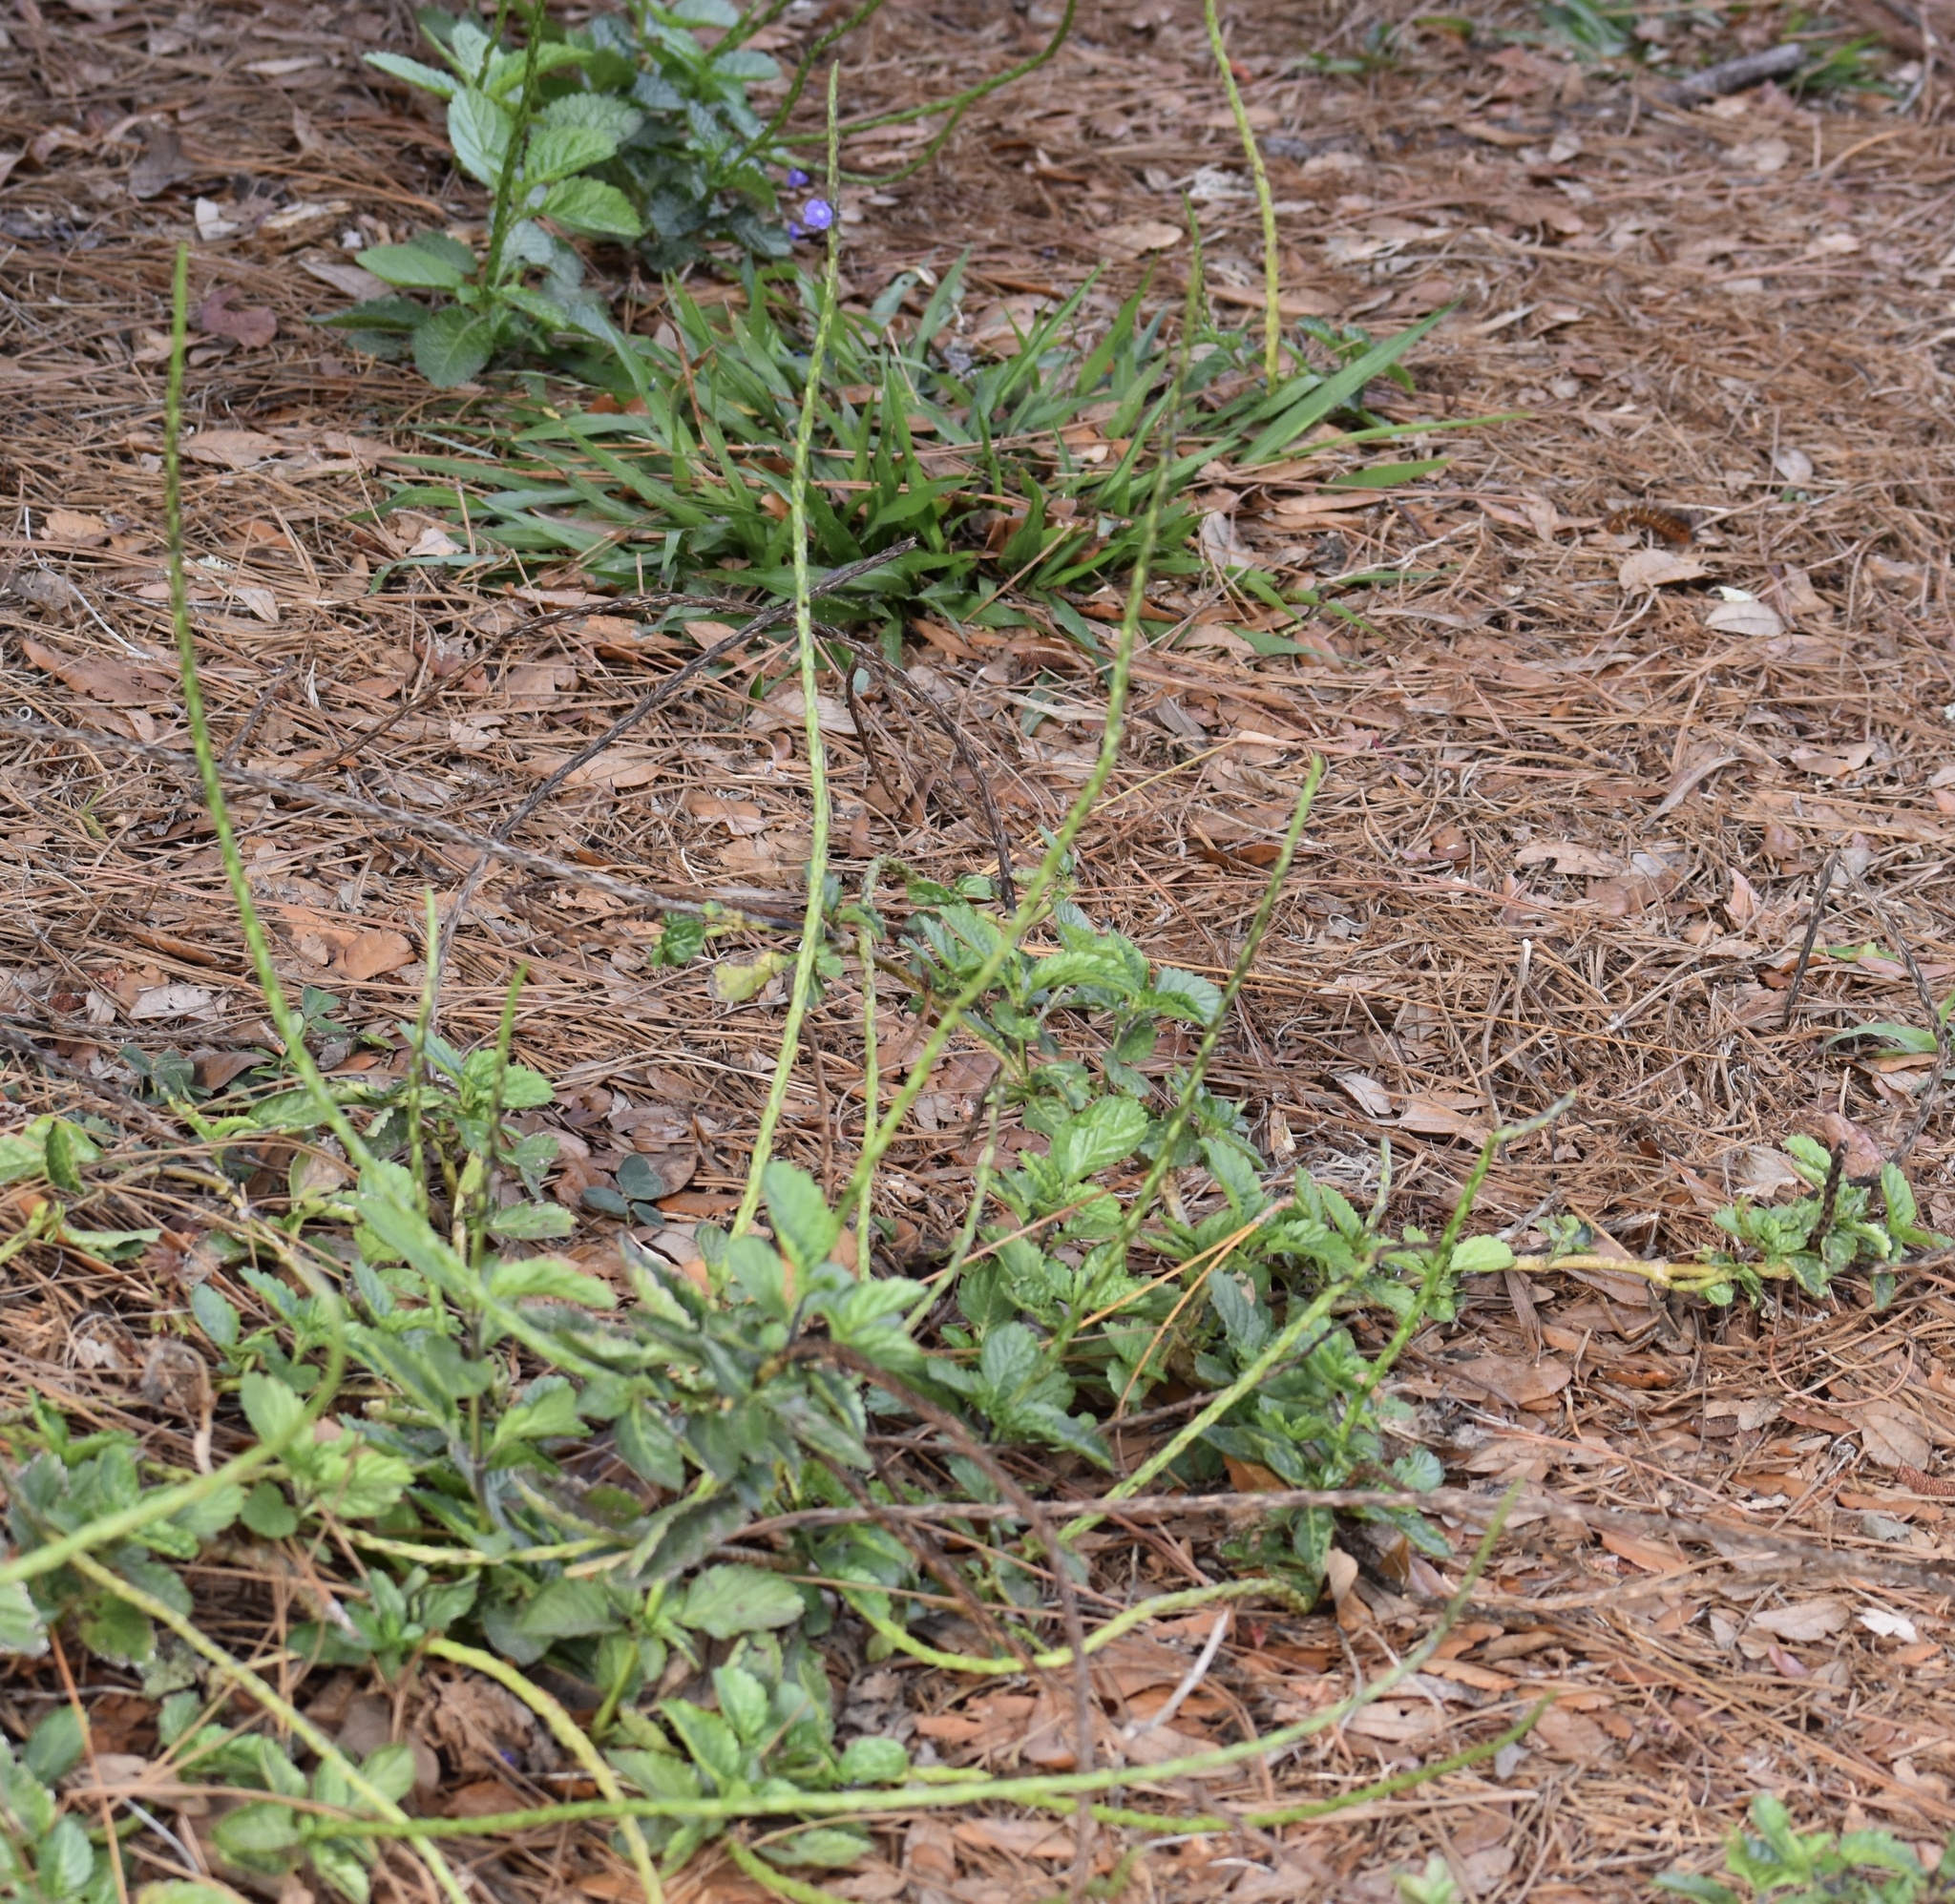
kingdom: Plantae
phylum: Tracheophyta
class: Magnoliopsida
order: Lamiales
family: Verbenaceae
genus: Stachytarpheta
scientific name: Stachytarpheta jamaicensis
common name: Light-blue snakeweed
